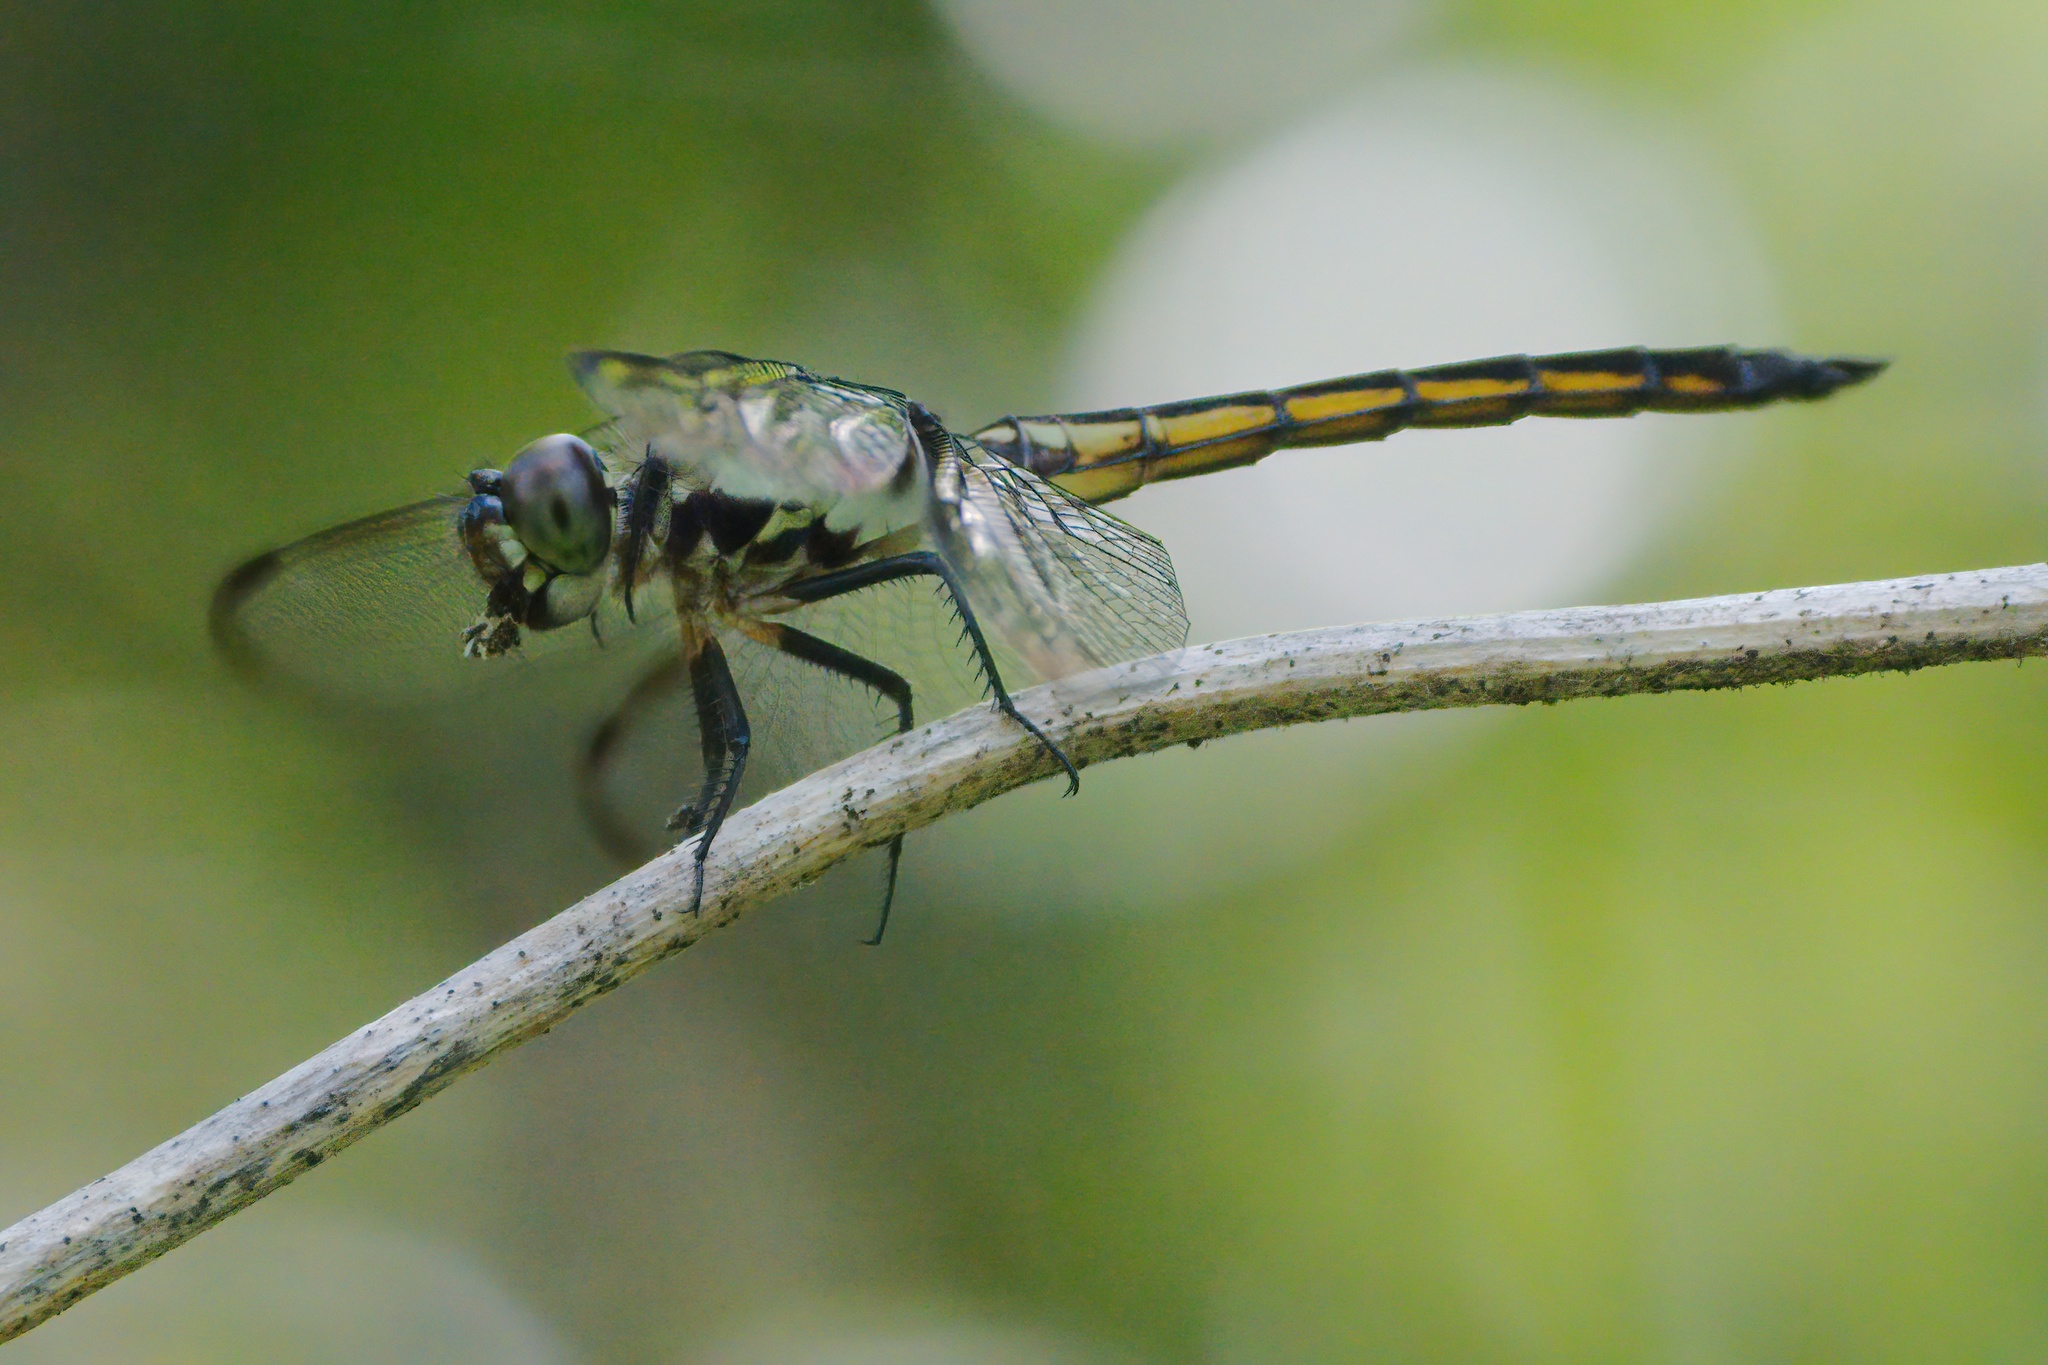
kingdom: Animalia
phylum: Arthropoda
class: Insecta
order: Odonata
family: Libellulidae
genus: Libellula
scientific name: Libellula incesta
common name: Slaty skimmer
